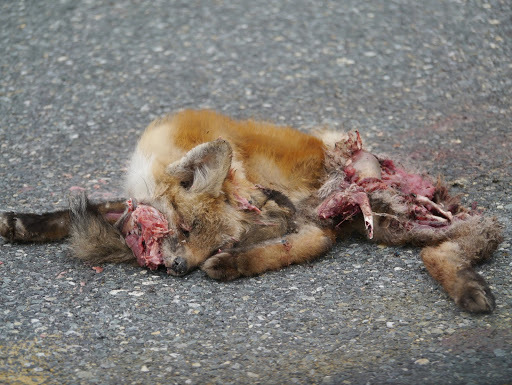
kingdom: Animalia
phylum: Chordata
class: Mammalia
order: Carnivora
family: Canidae
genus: Vulpes
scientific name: Vulpes vulpes
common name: Red fox
